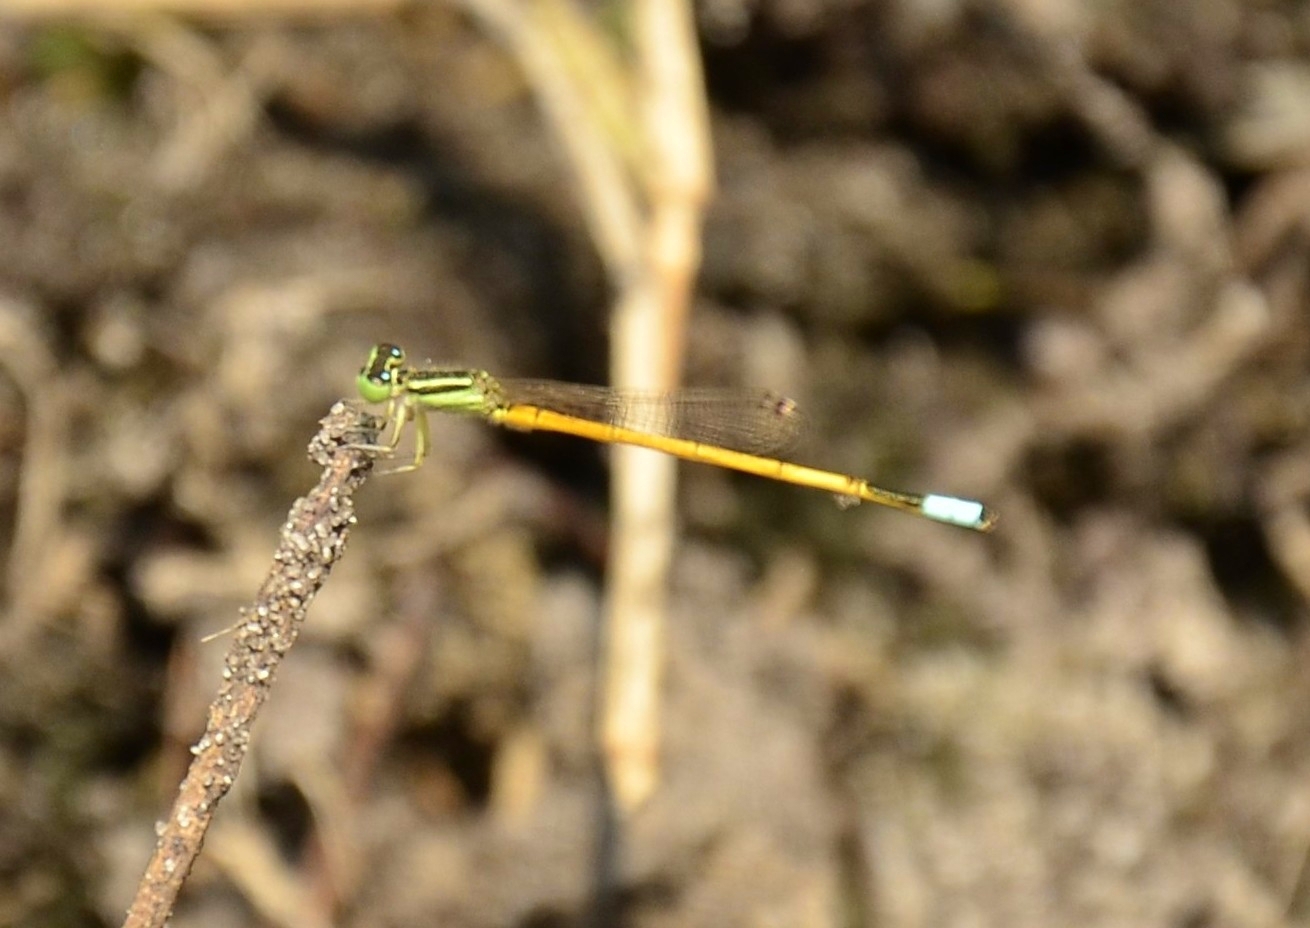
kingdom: Animalia
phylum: Arthropoda
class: Insecta
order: Odonata
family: Coenagrionidae
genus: Ischnura
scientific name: Ischnura rubilio
